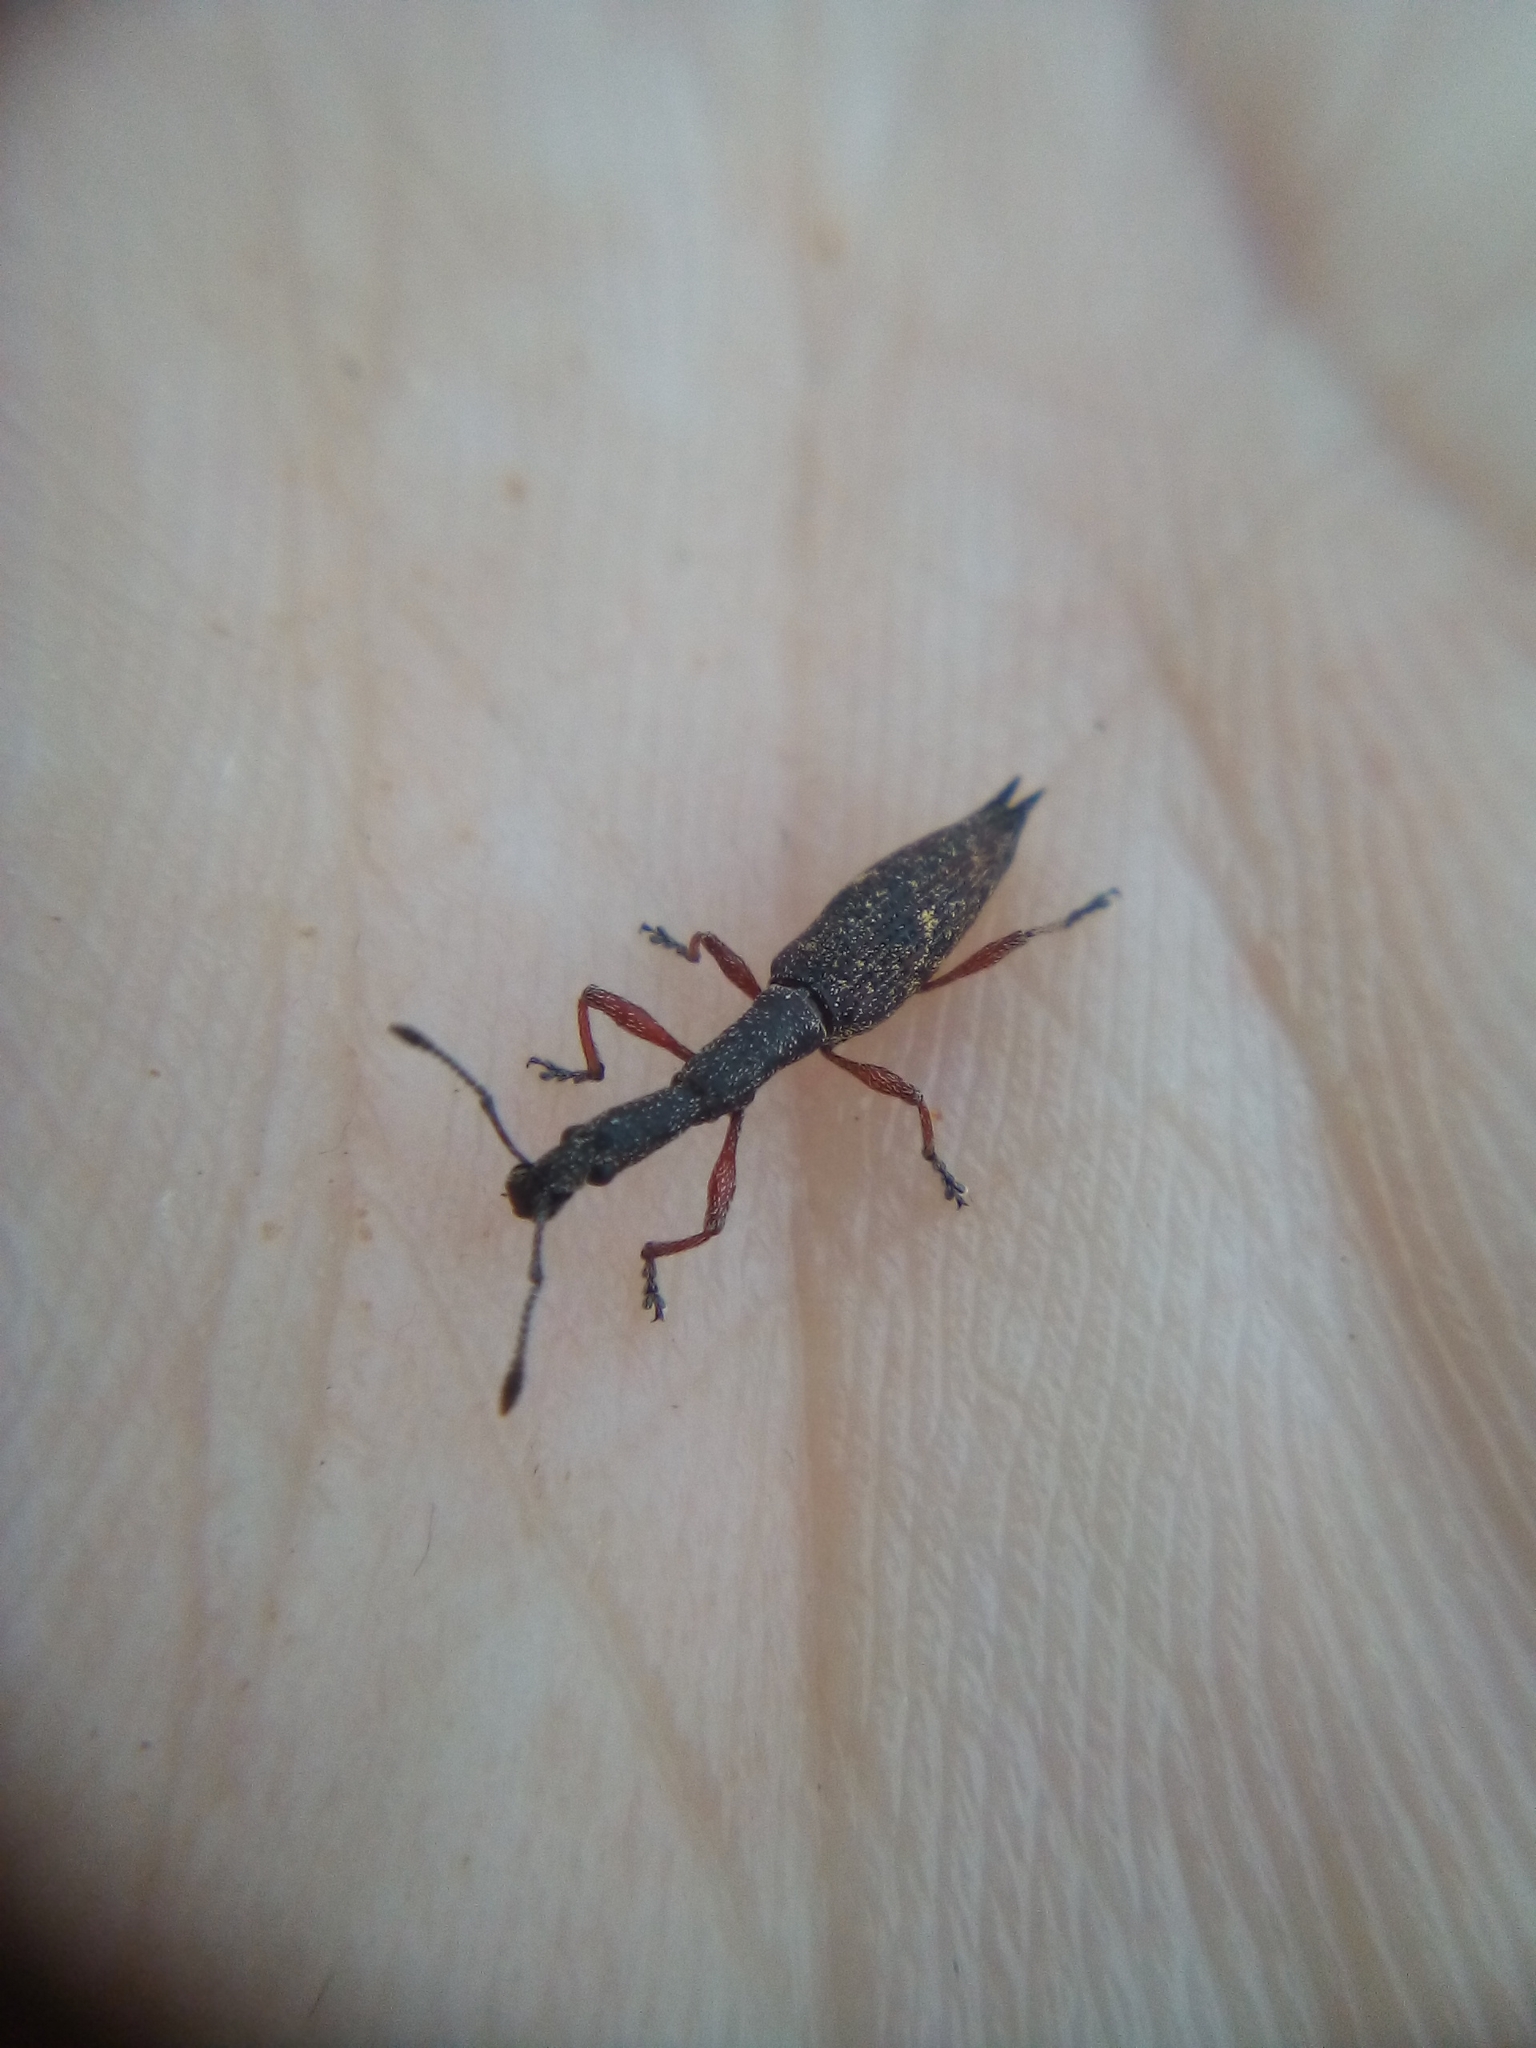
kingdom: Animalia
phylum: Arthropoda
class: Insecta
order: Coleoptera
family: Curculionidae
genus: Rhadinosomus
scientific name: Rhadinosomus acuminatus
